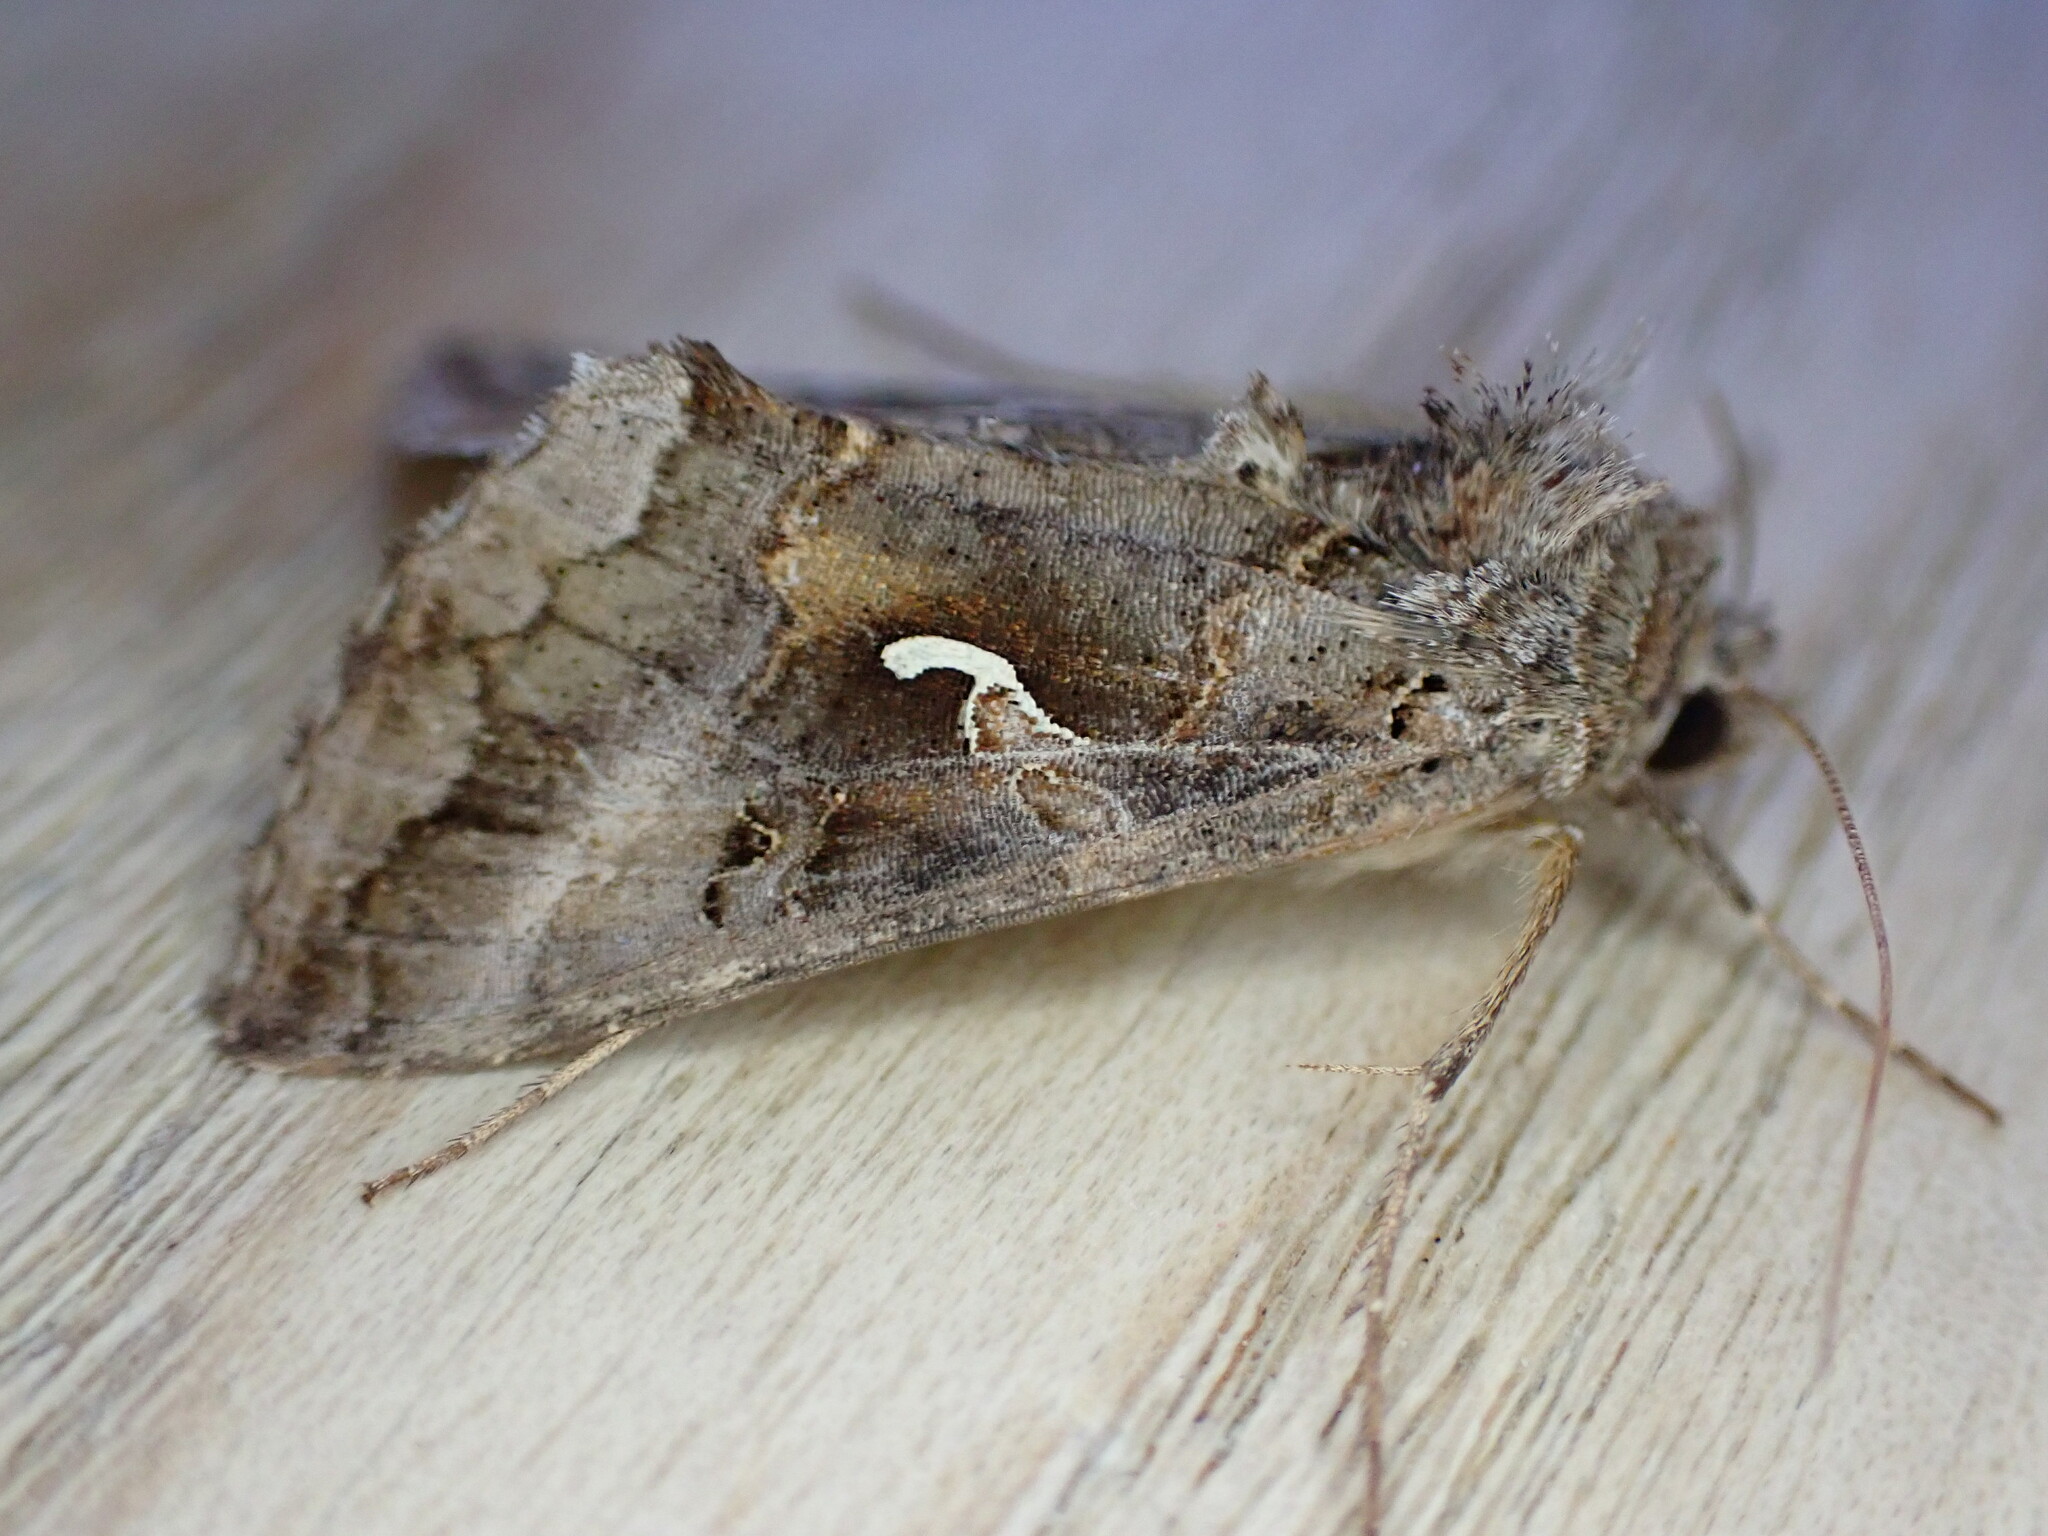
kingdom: Animalia
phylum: Arthropoda
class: Insecta
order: Lepidoptera
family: Noctuidae
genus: Autographa
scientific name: Autographa gamma
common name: Silver y
